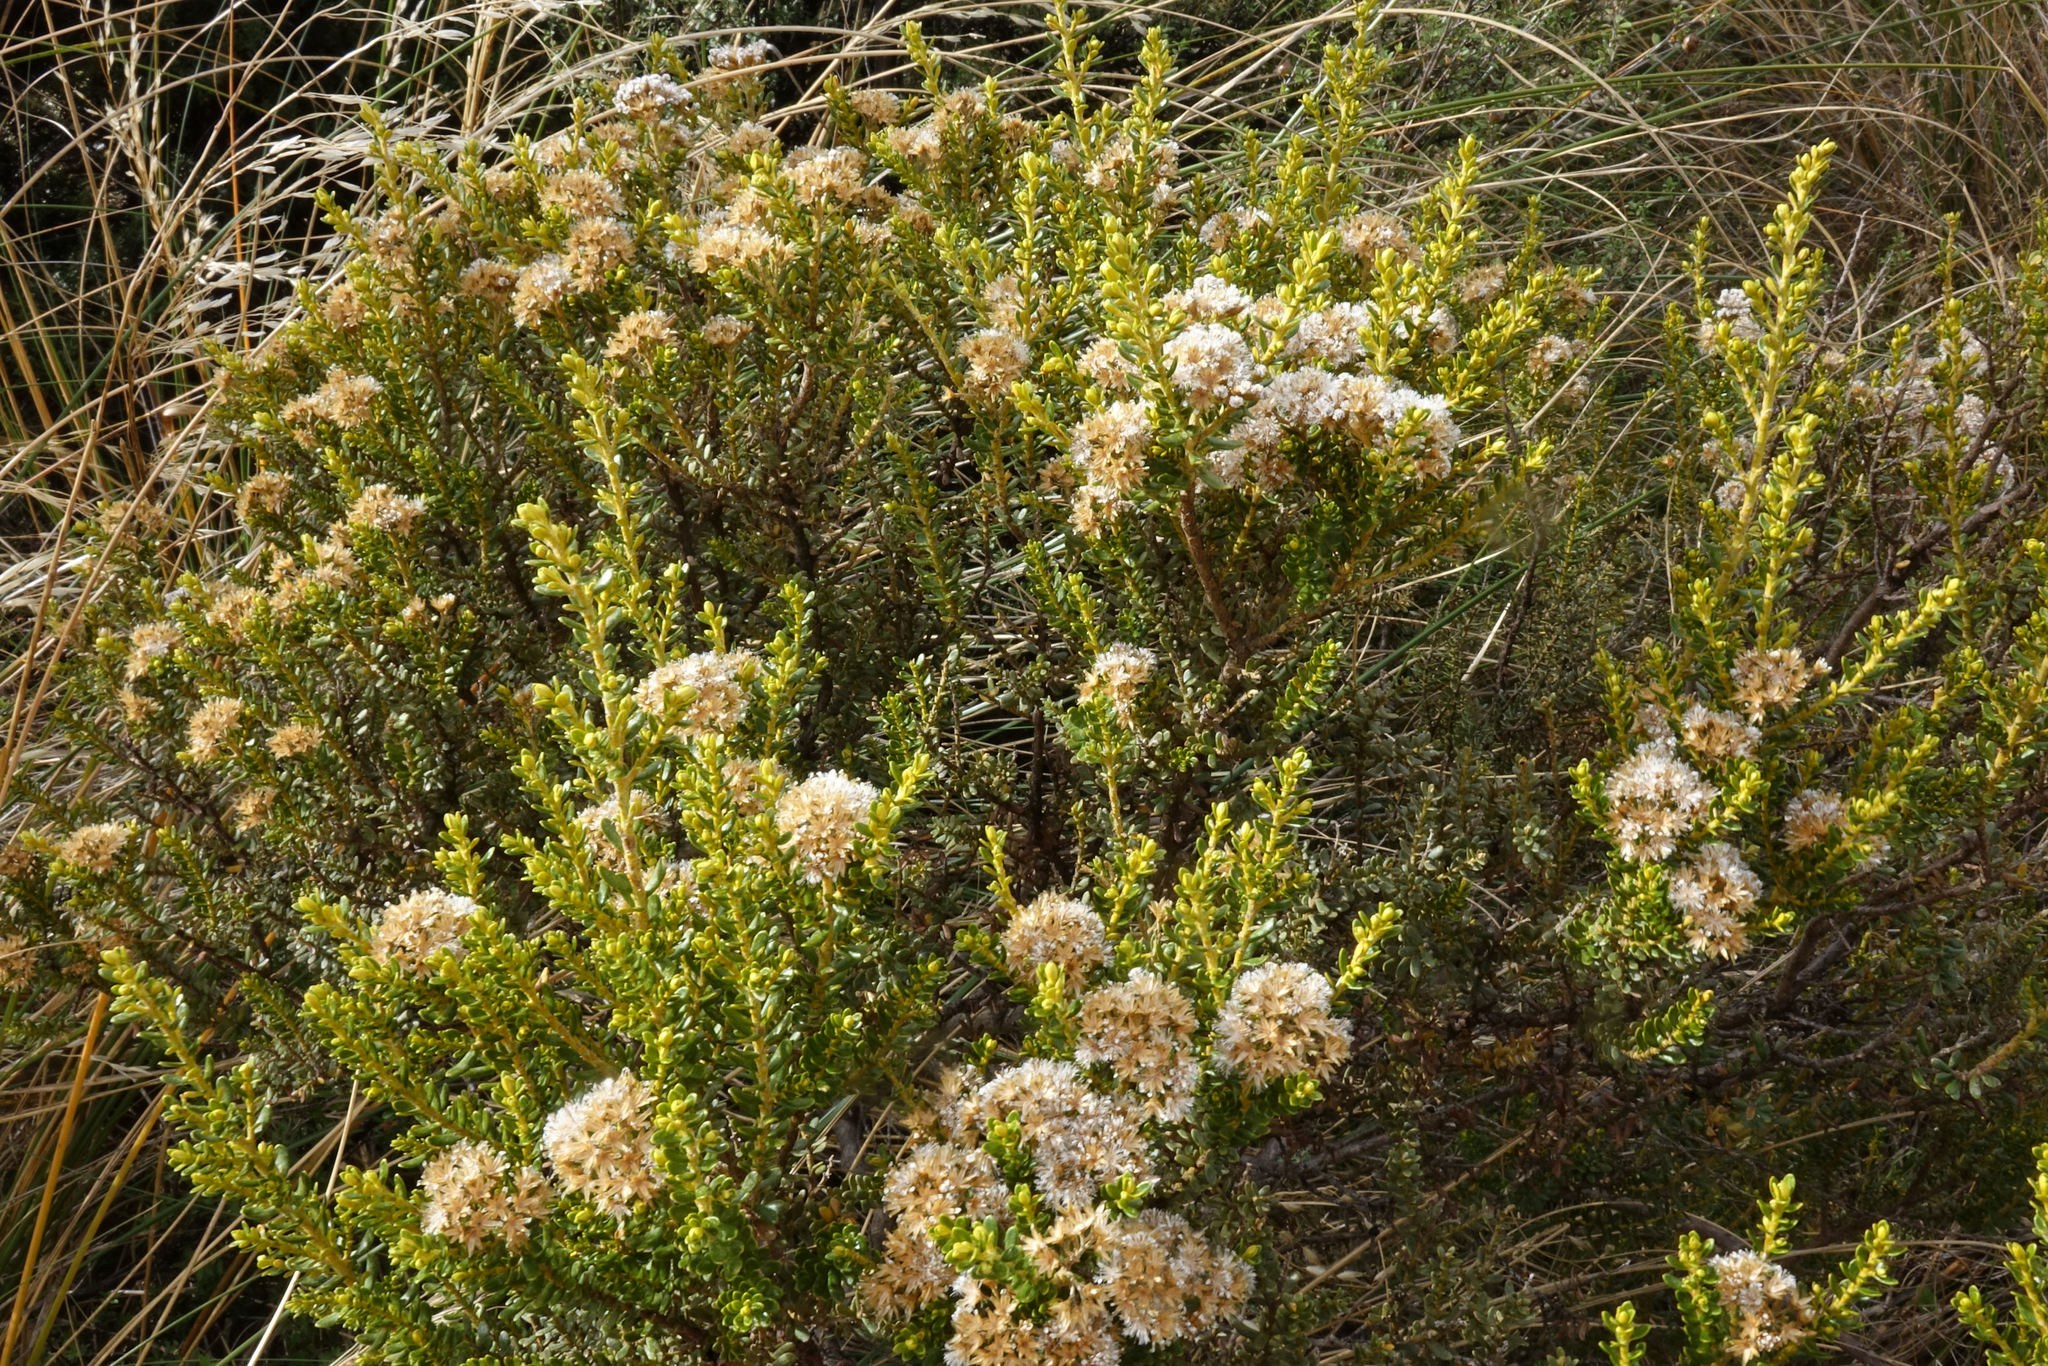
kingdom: Plantae
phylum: Tracheophyta
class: Magnoliopsida
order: Asterales
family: Asteraceae
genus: Ozothamnus
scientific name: Ozothamnus leptophyllus
